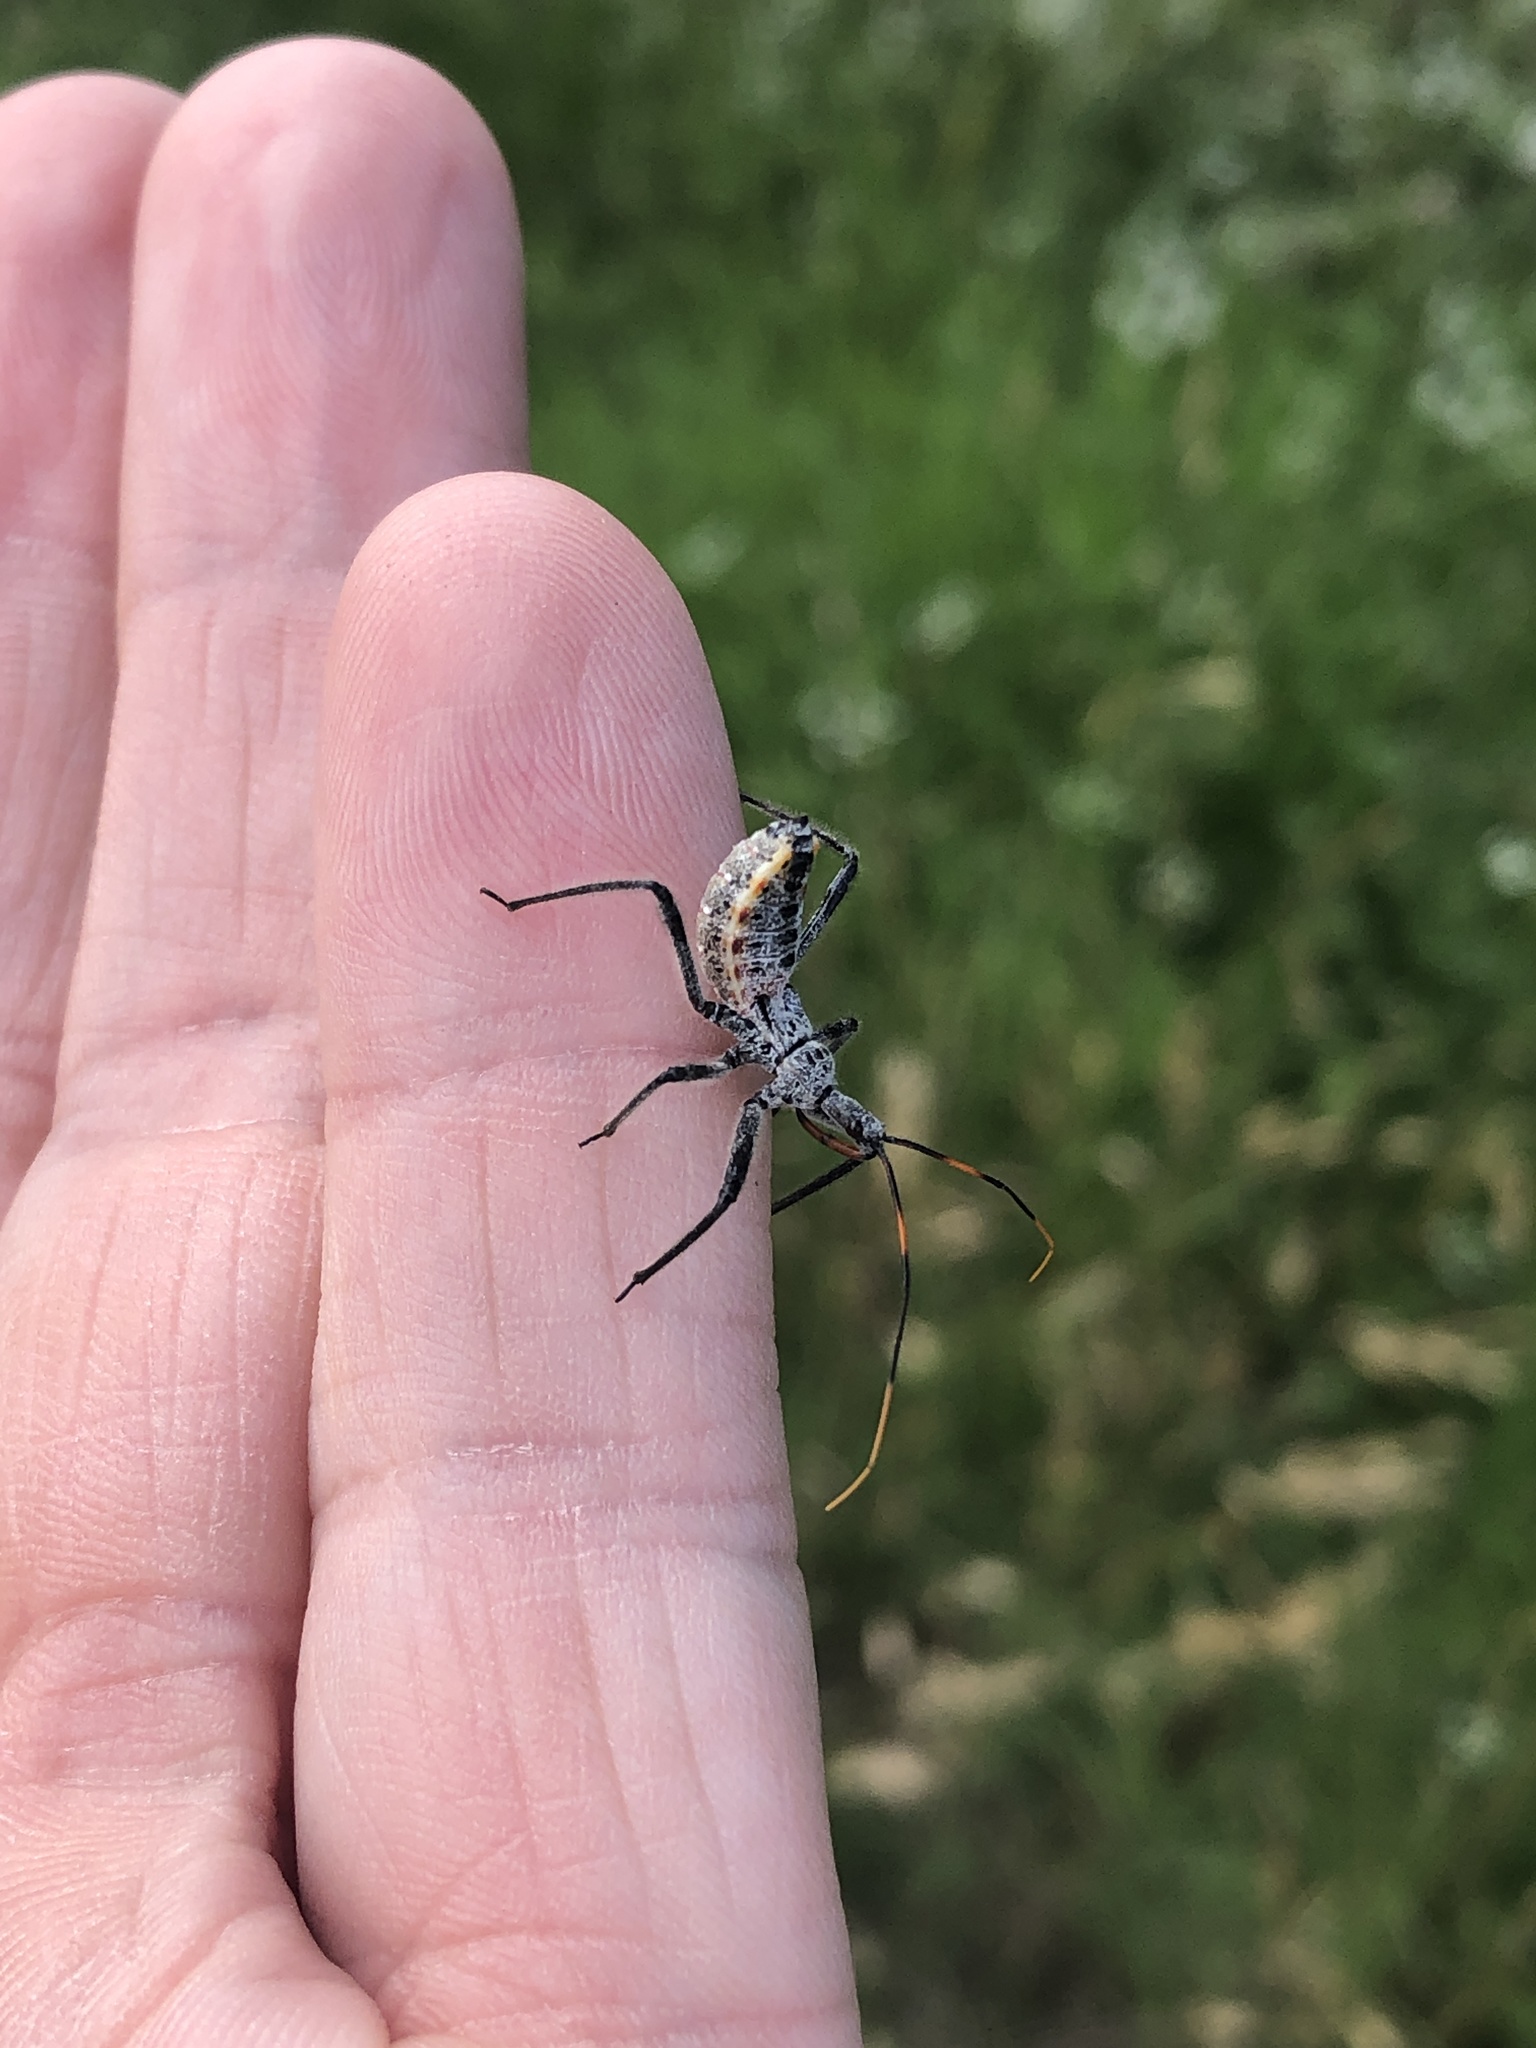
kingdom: Animalia
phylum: Arthropoda
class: Insecta
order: Hemiptera
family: Reduviidae
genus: Arilus
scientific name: Arilus cristatus
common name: North american wheel bug
